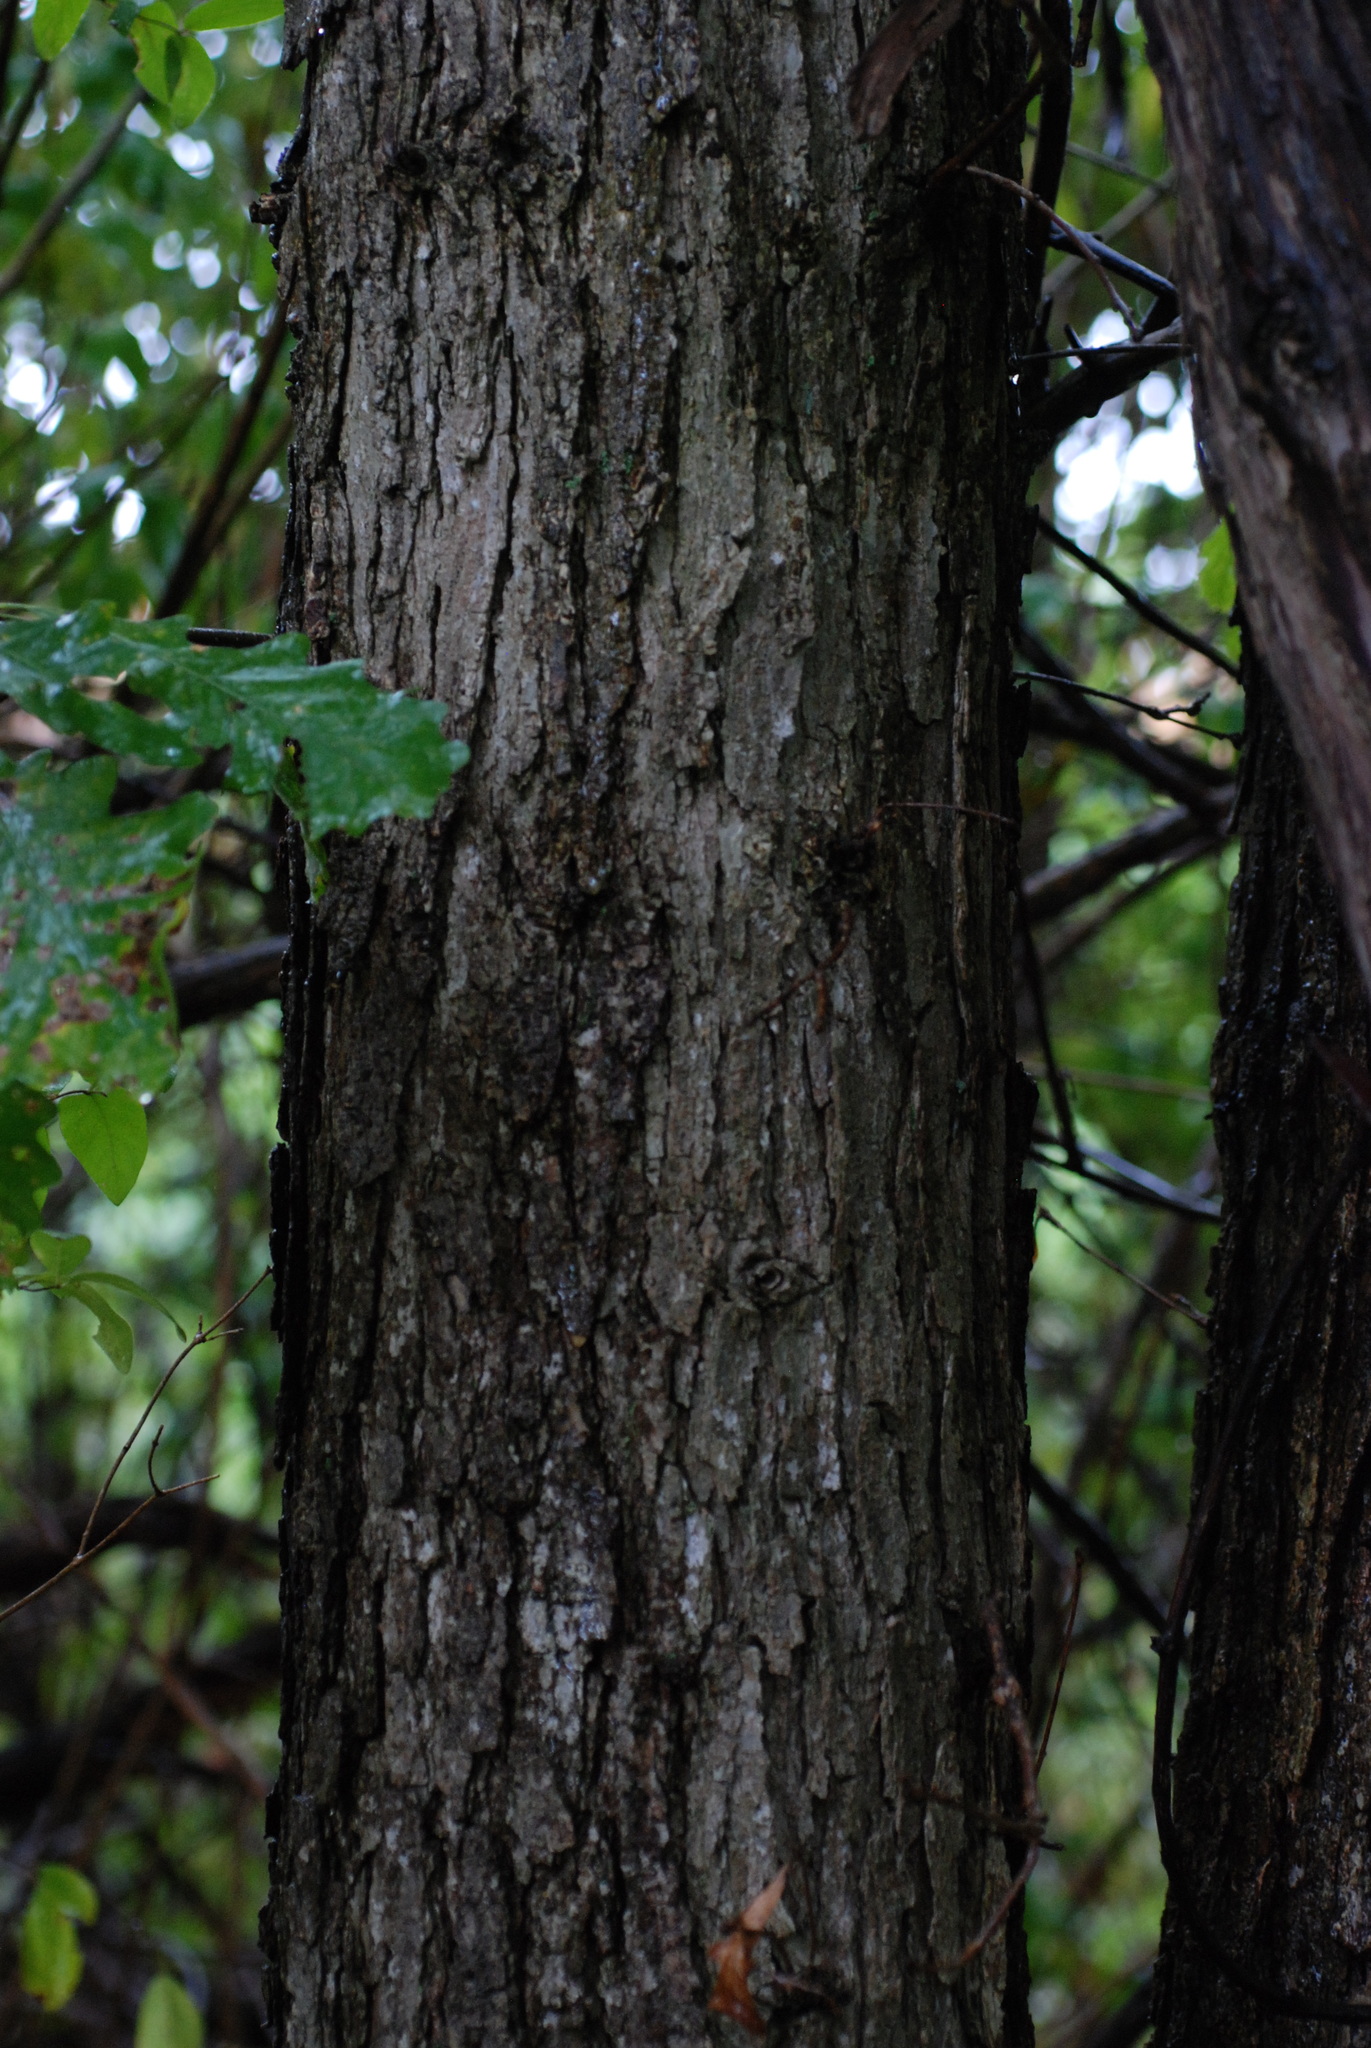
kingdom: Plantae
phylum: Tracheophyta
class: Magnoliopsida
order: Fagales
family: Fagaceae
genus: Quercus
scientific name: Quercus bebbiana
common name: Bebb's oak
